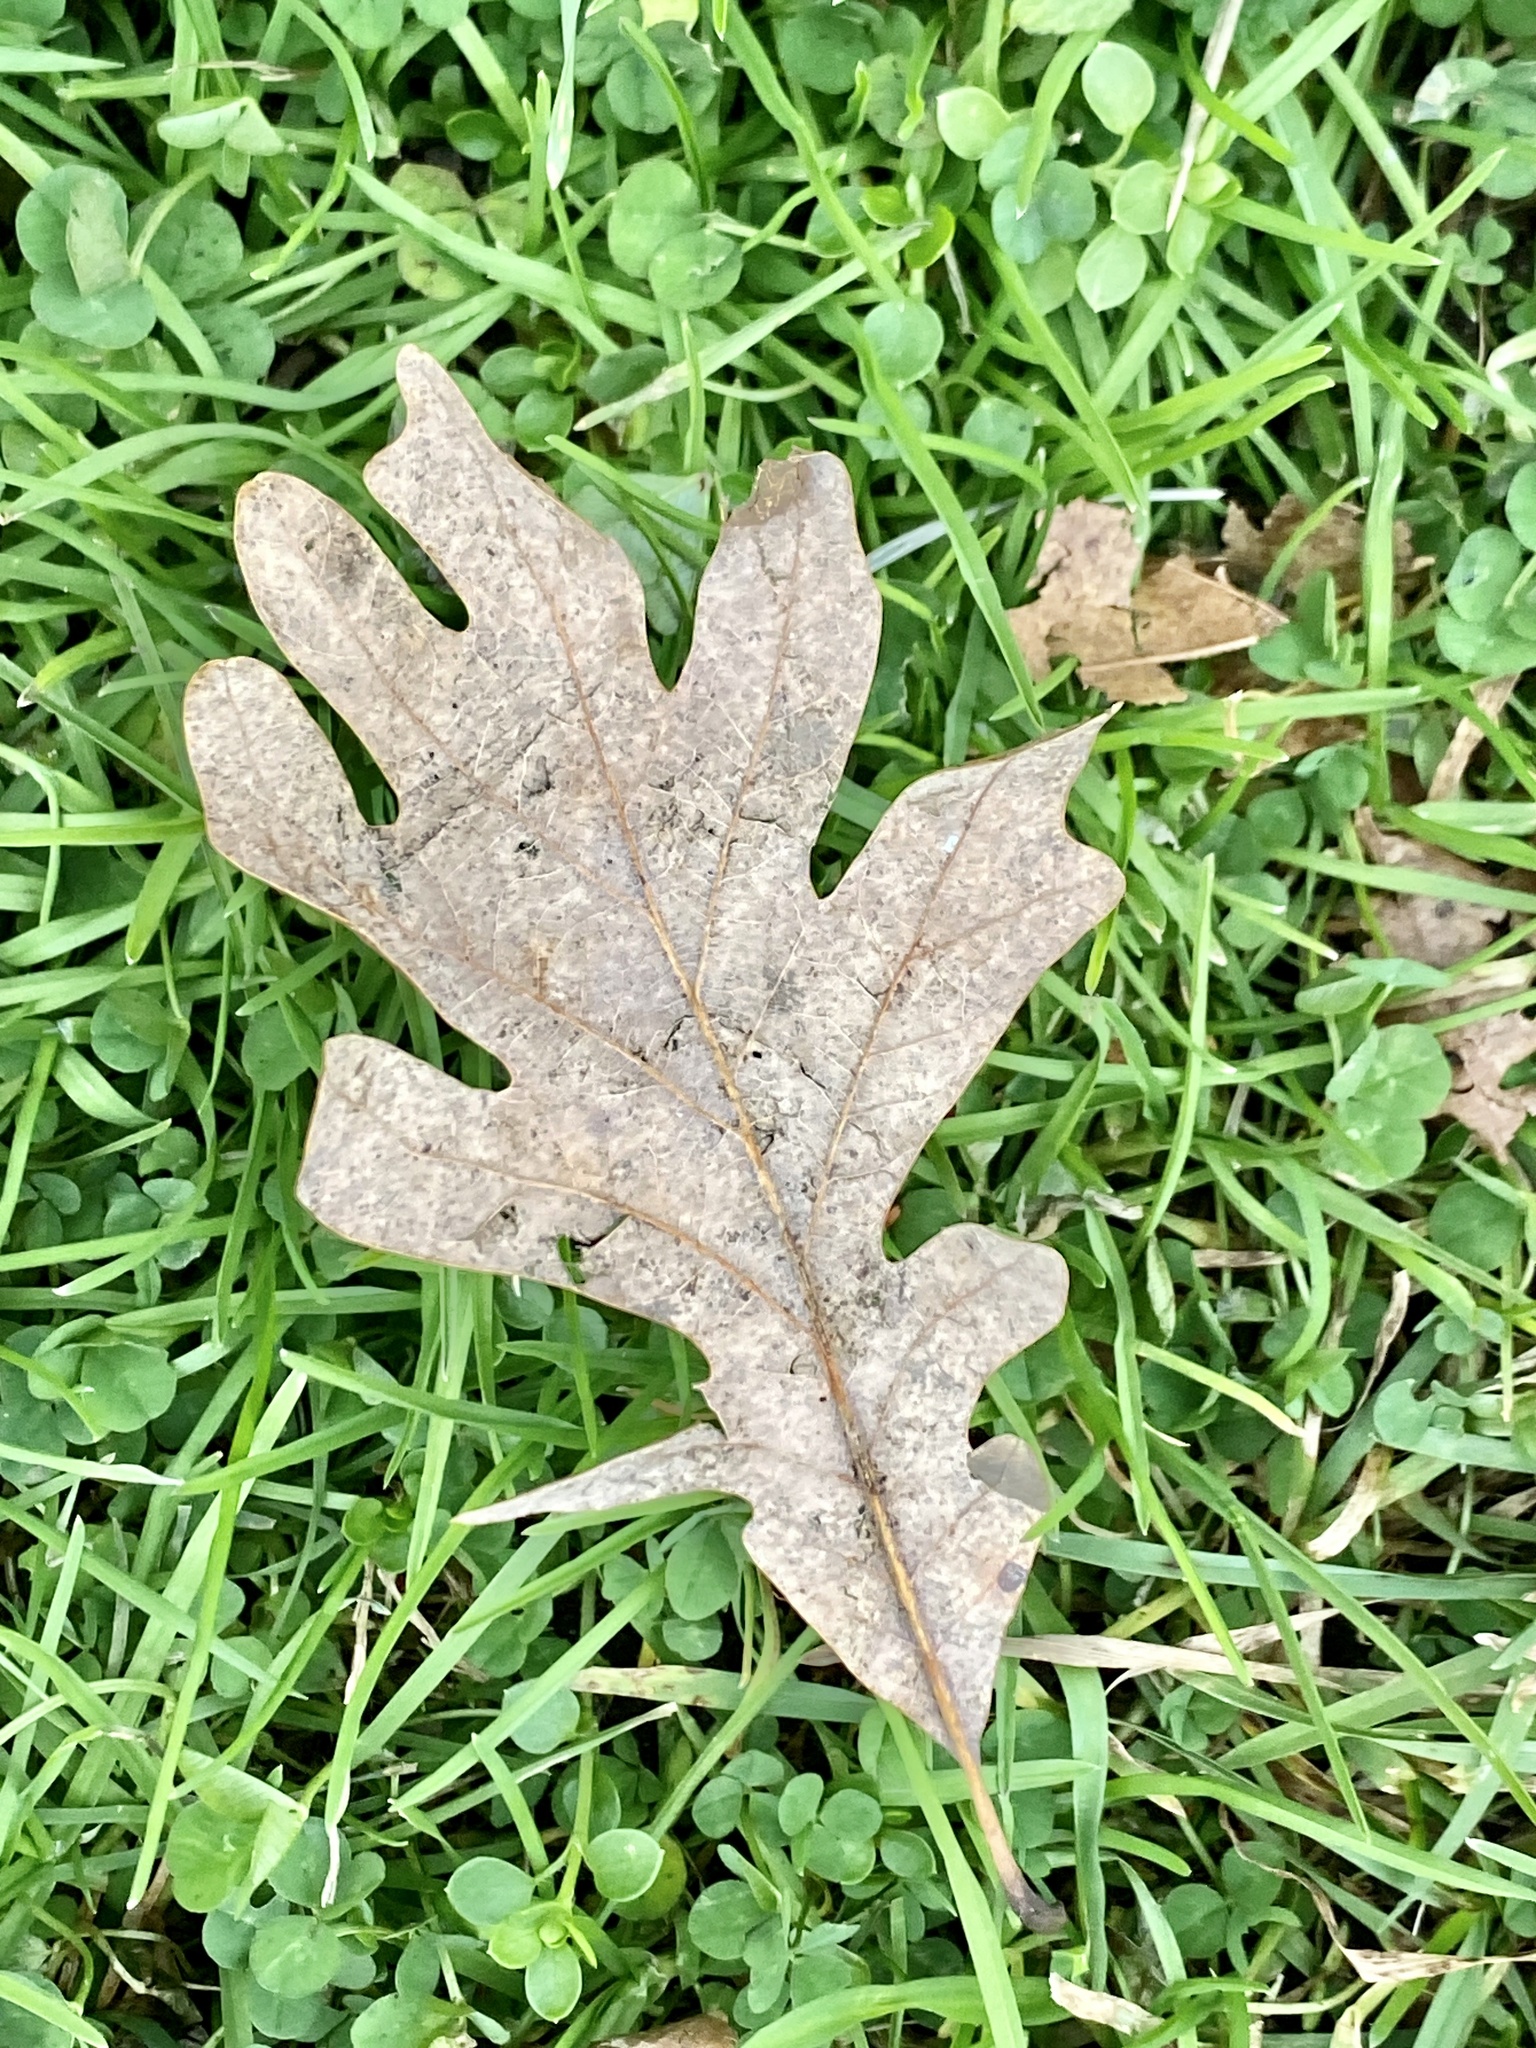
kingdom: Plantae
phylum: Tracheophyta
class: Magnoliopsida
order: Fagales
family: Fagaceae
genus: Quercus
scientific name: Quercus alba
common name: White oak
